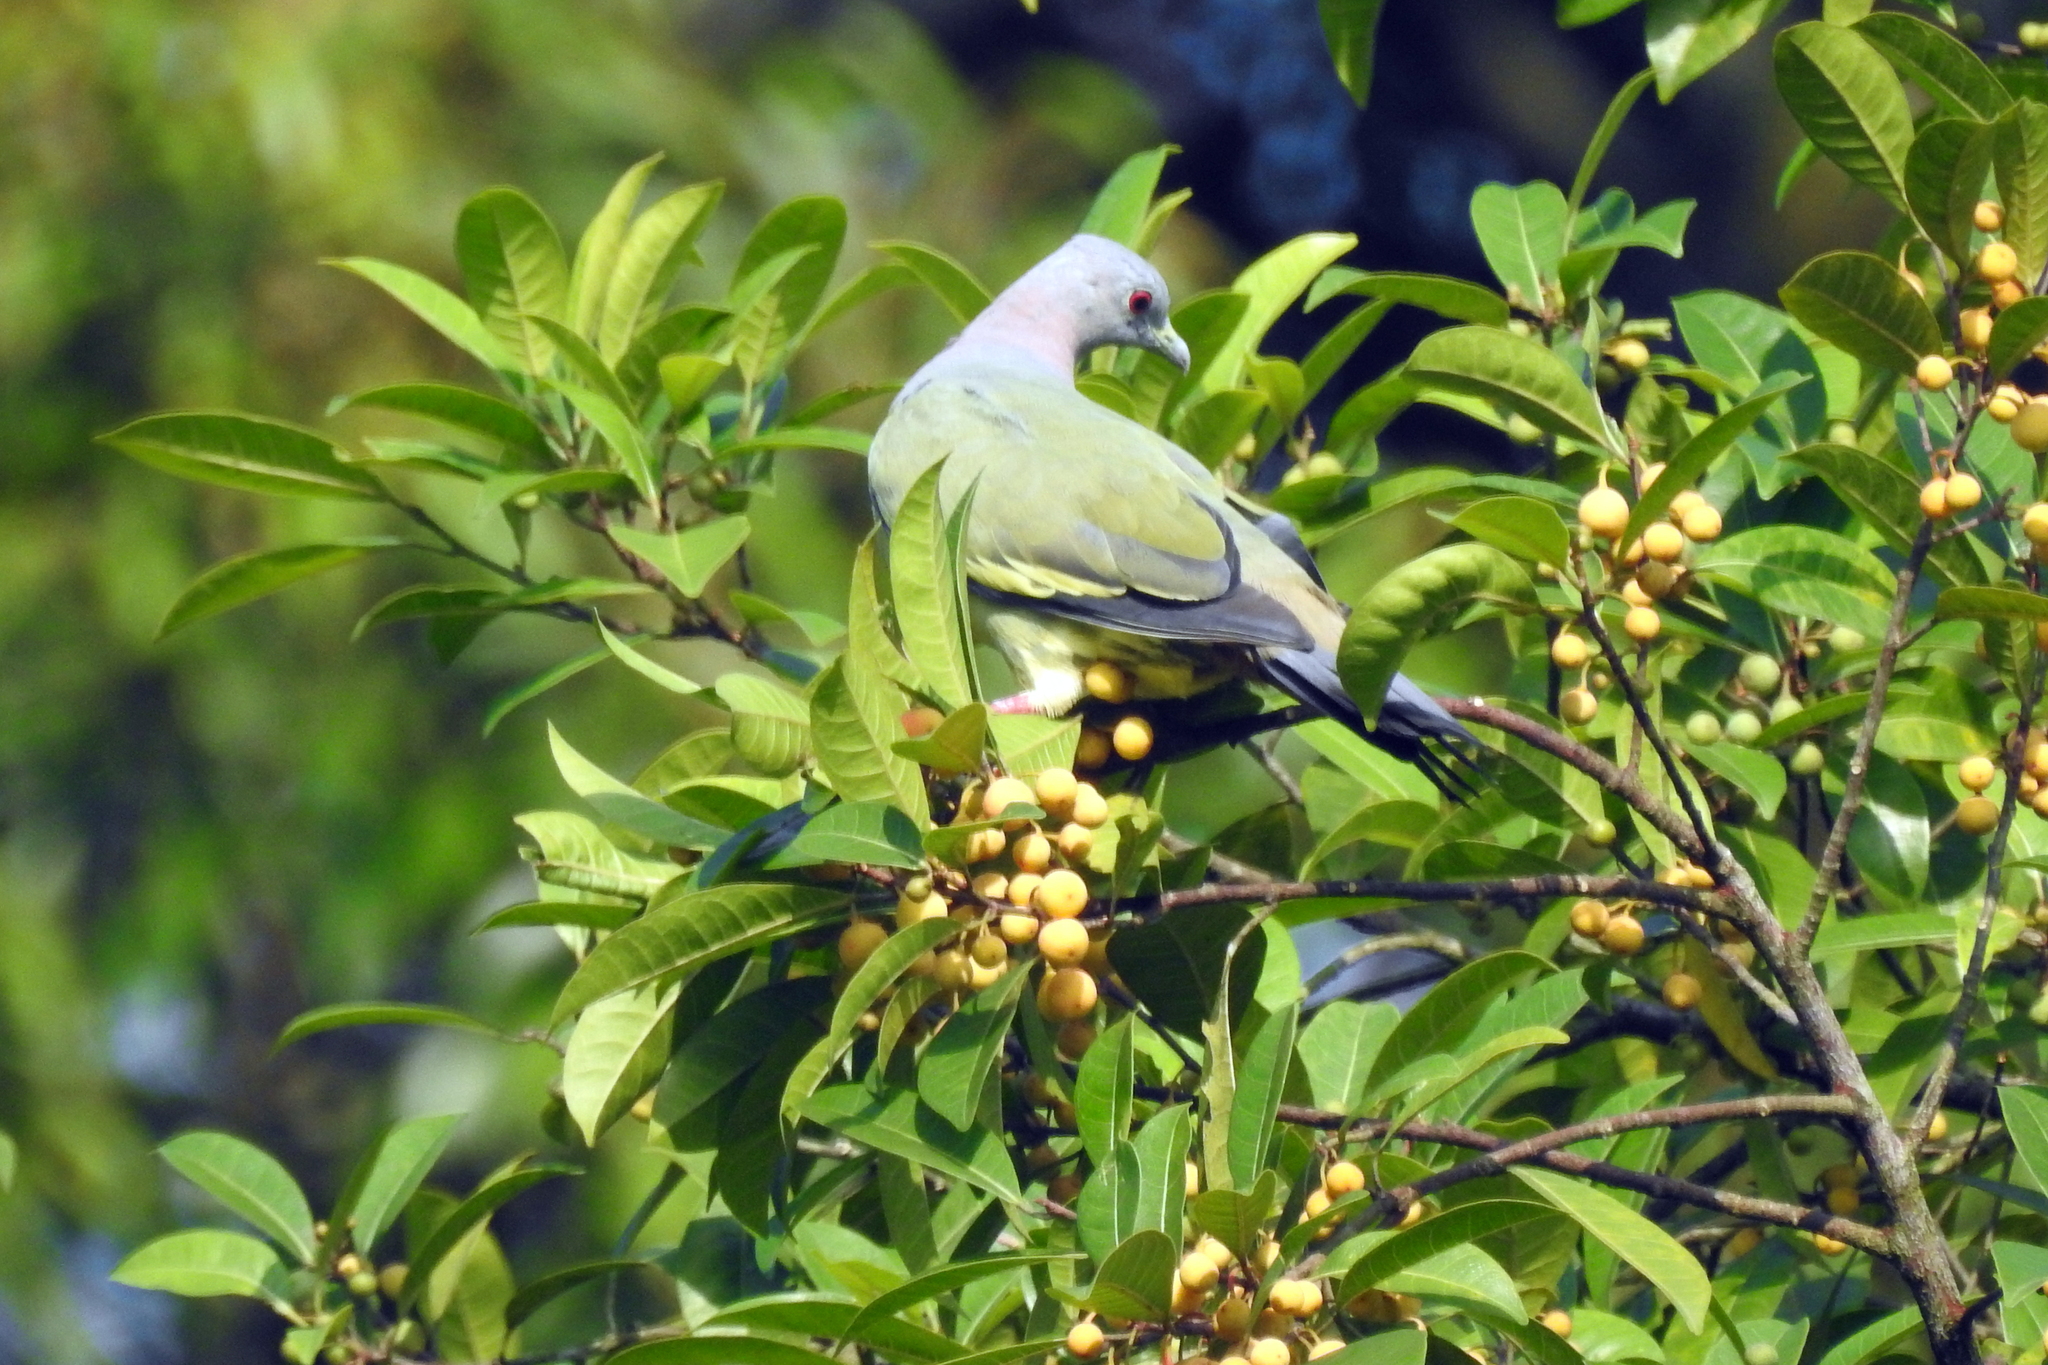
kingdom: Animalia
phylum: Chordata
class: Aves
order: Columbiformes
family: Columbidae
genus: Treron
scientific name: Treron vernans
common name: Pink-necked green pigeon
